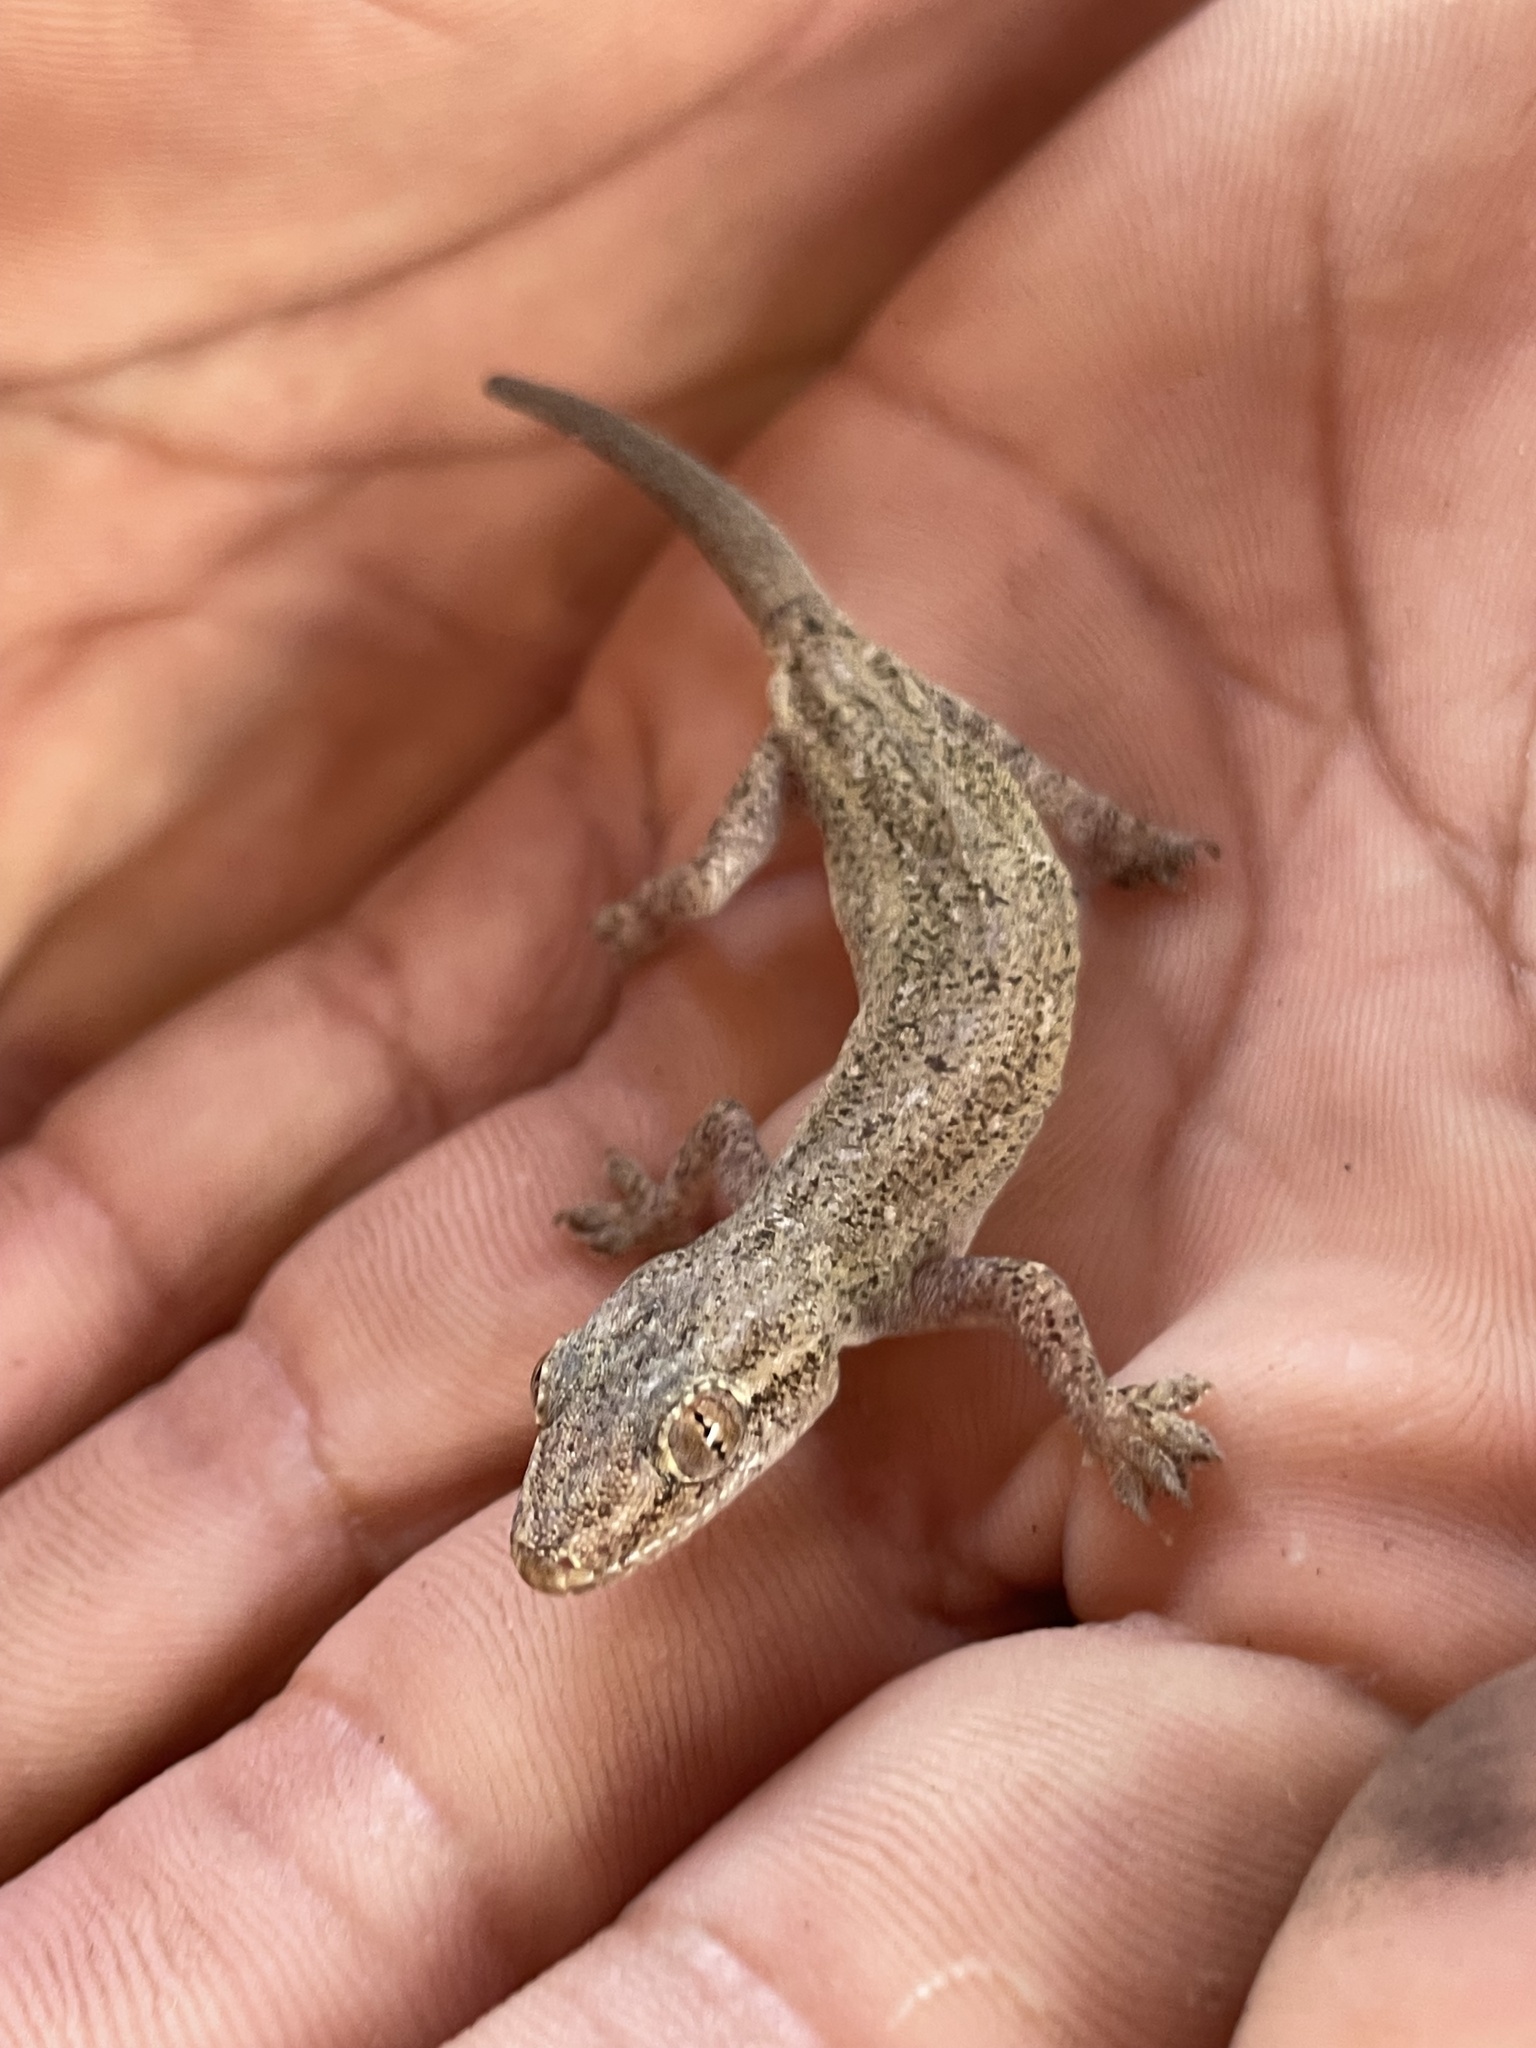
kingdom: Animalia
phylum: Chordata
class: Squamata
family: Gekkonidae
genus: Hemidactylus
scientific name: Hemidactylus frenatus
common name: Common house gecko
